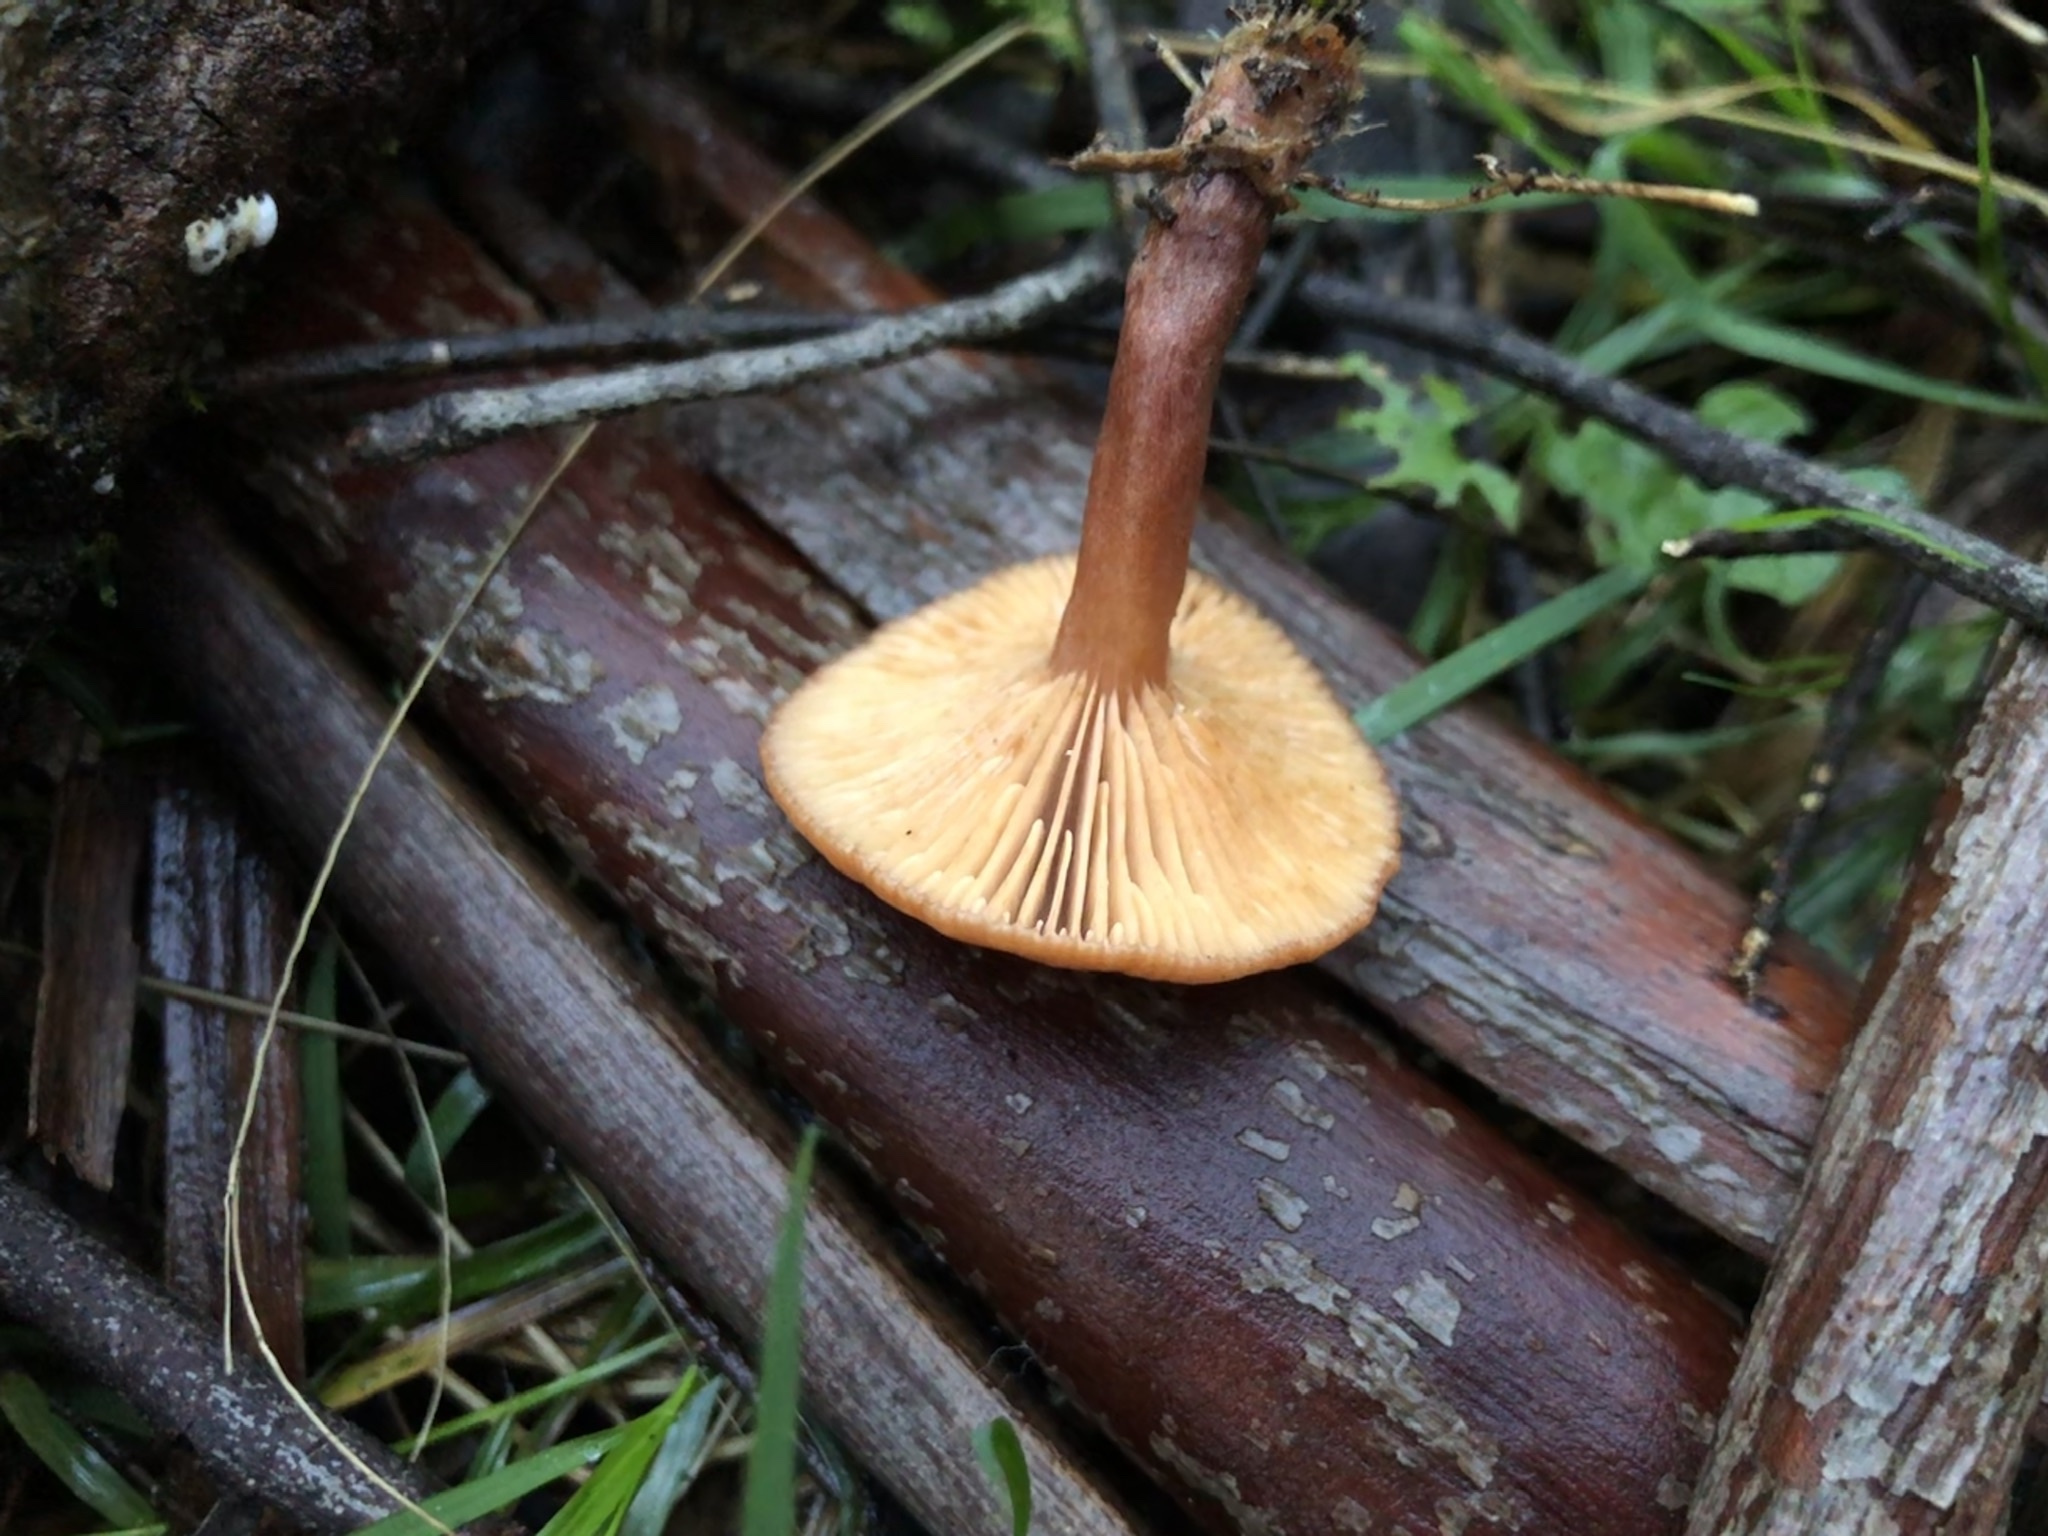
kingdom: Fungi
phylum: Basidiomycota
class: Agaricomycetes
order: Russulales
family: Russulaceae
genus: Lactarius
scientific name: Lactarius eucalypti
